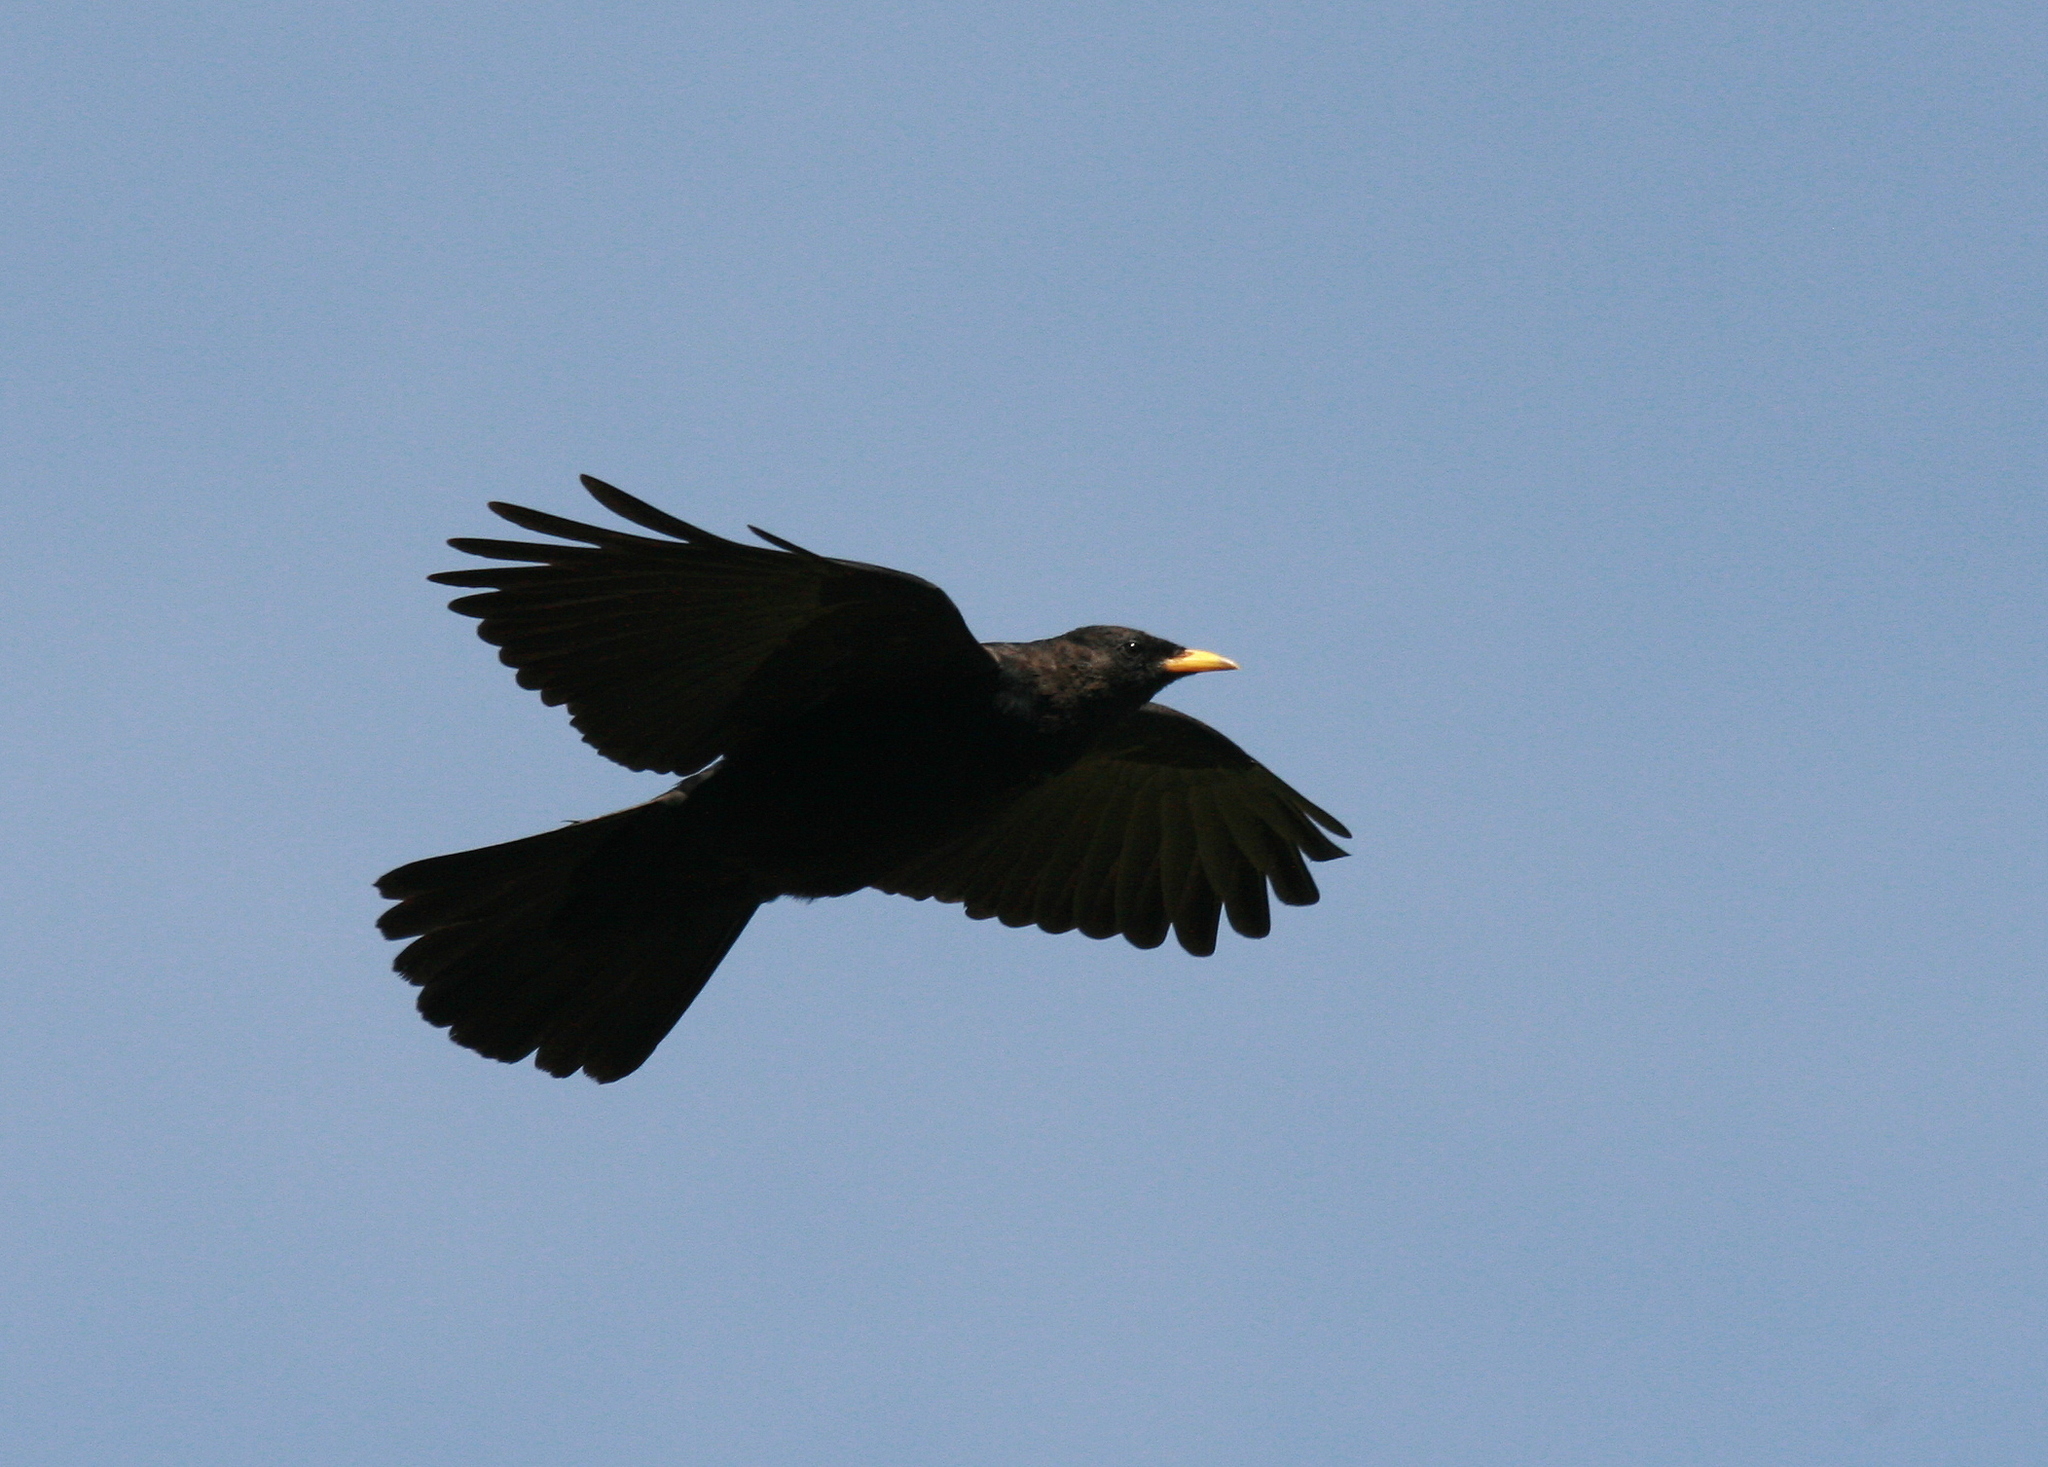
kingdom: Animalia
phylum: Chordata
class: Aves
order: Passeriformes
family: Corvidae
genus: Pyrrhocorax
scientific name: Pyrrhocorax graculus
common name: Alpine chough
